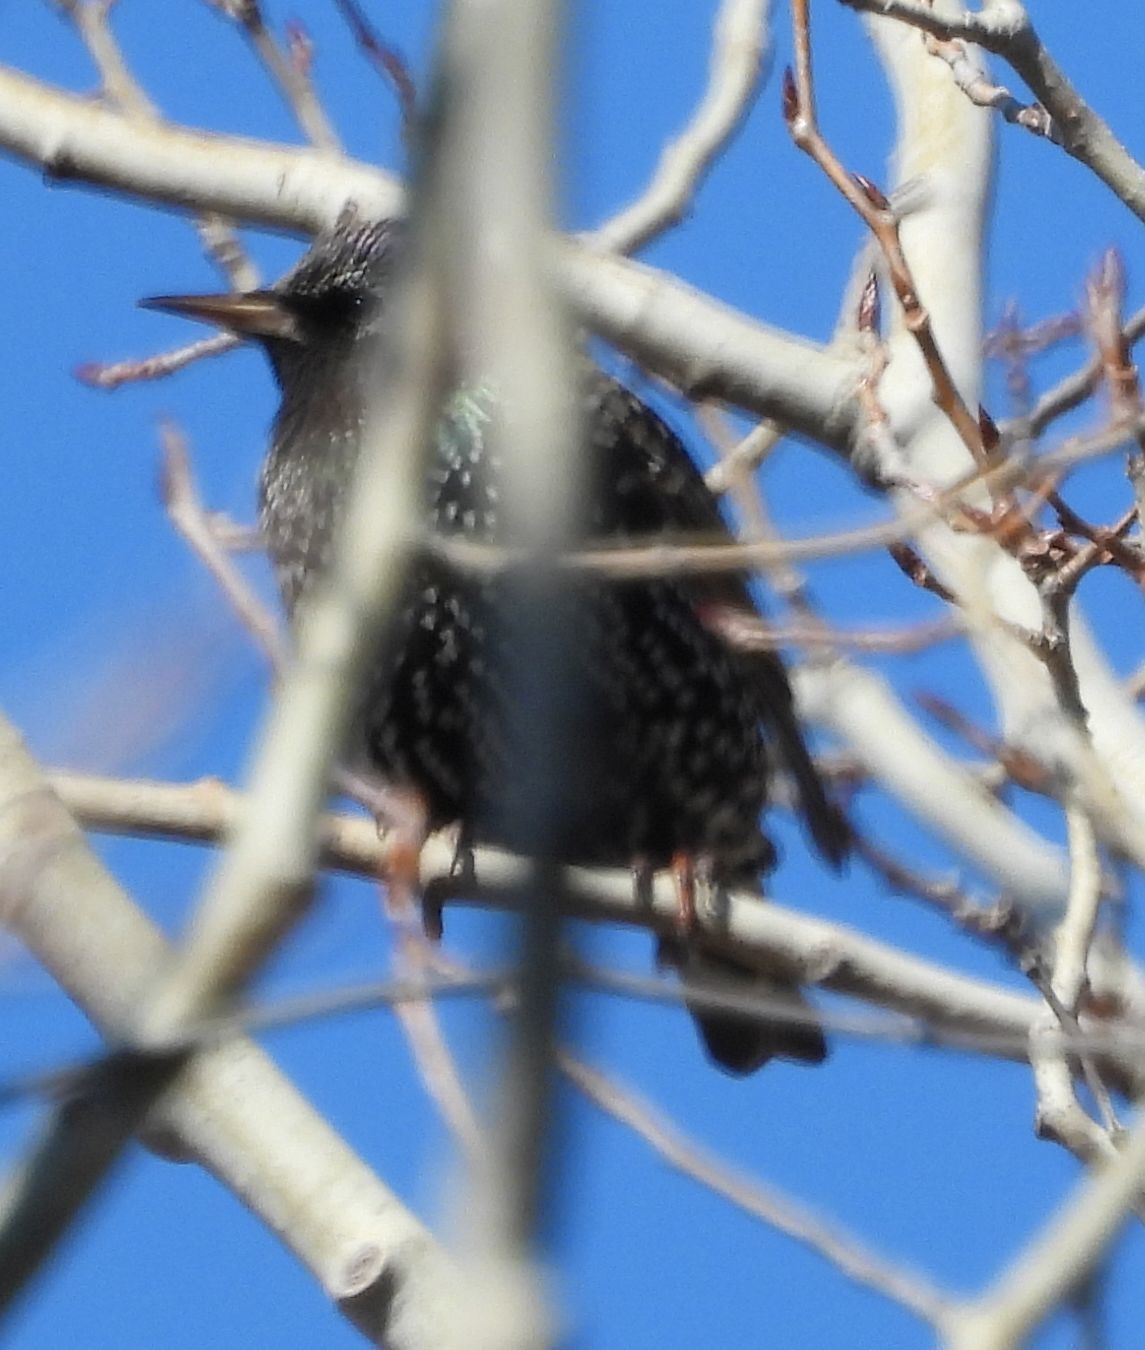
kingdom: Animalia
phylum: Chordata
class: Aves
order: Passeriformes
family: Sturnidae
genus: Sturnus
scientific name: Sturnus vulgaris
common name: Common starling
